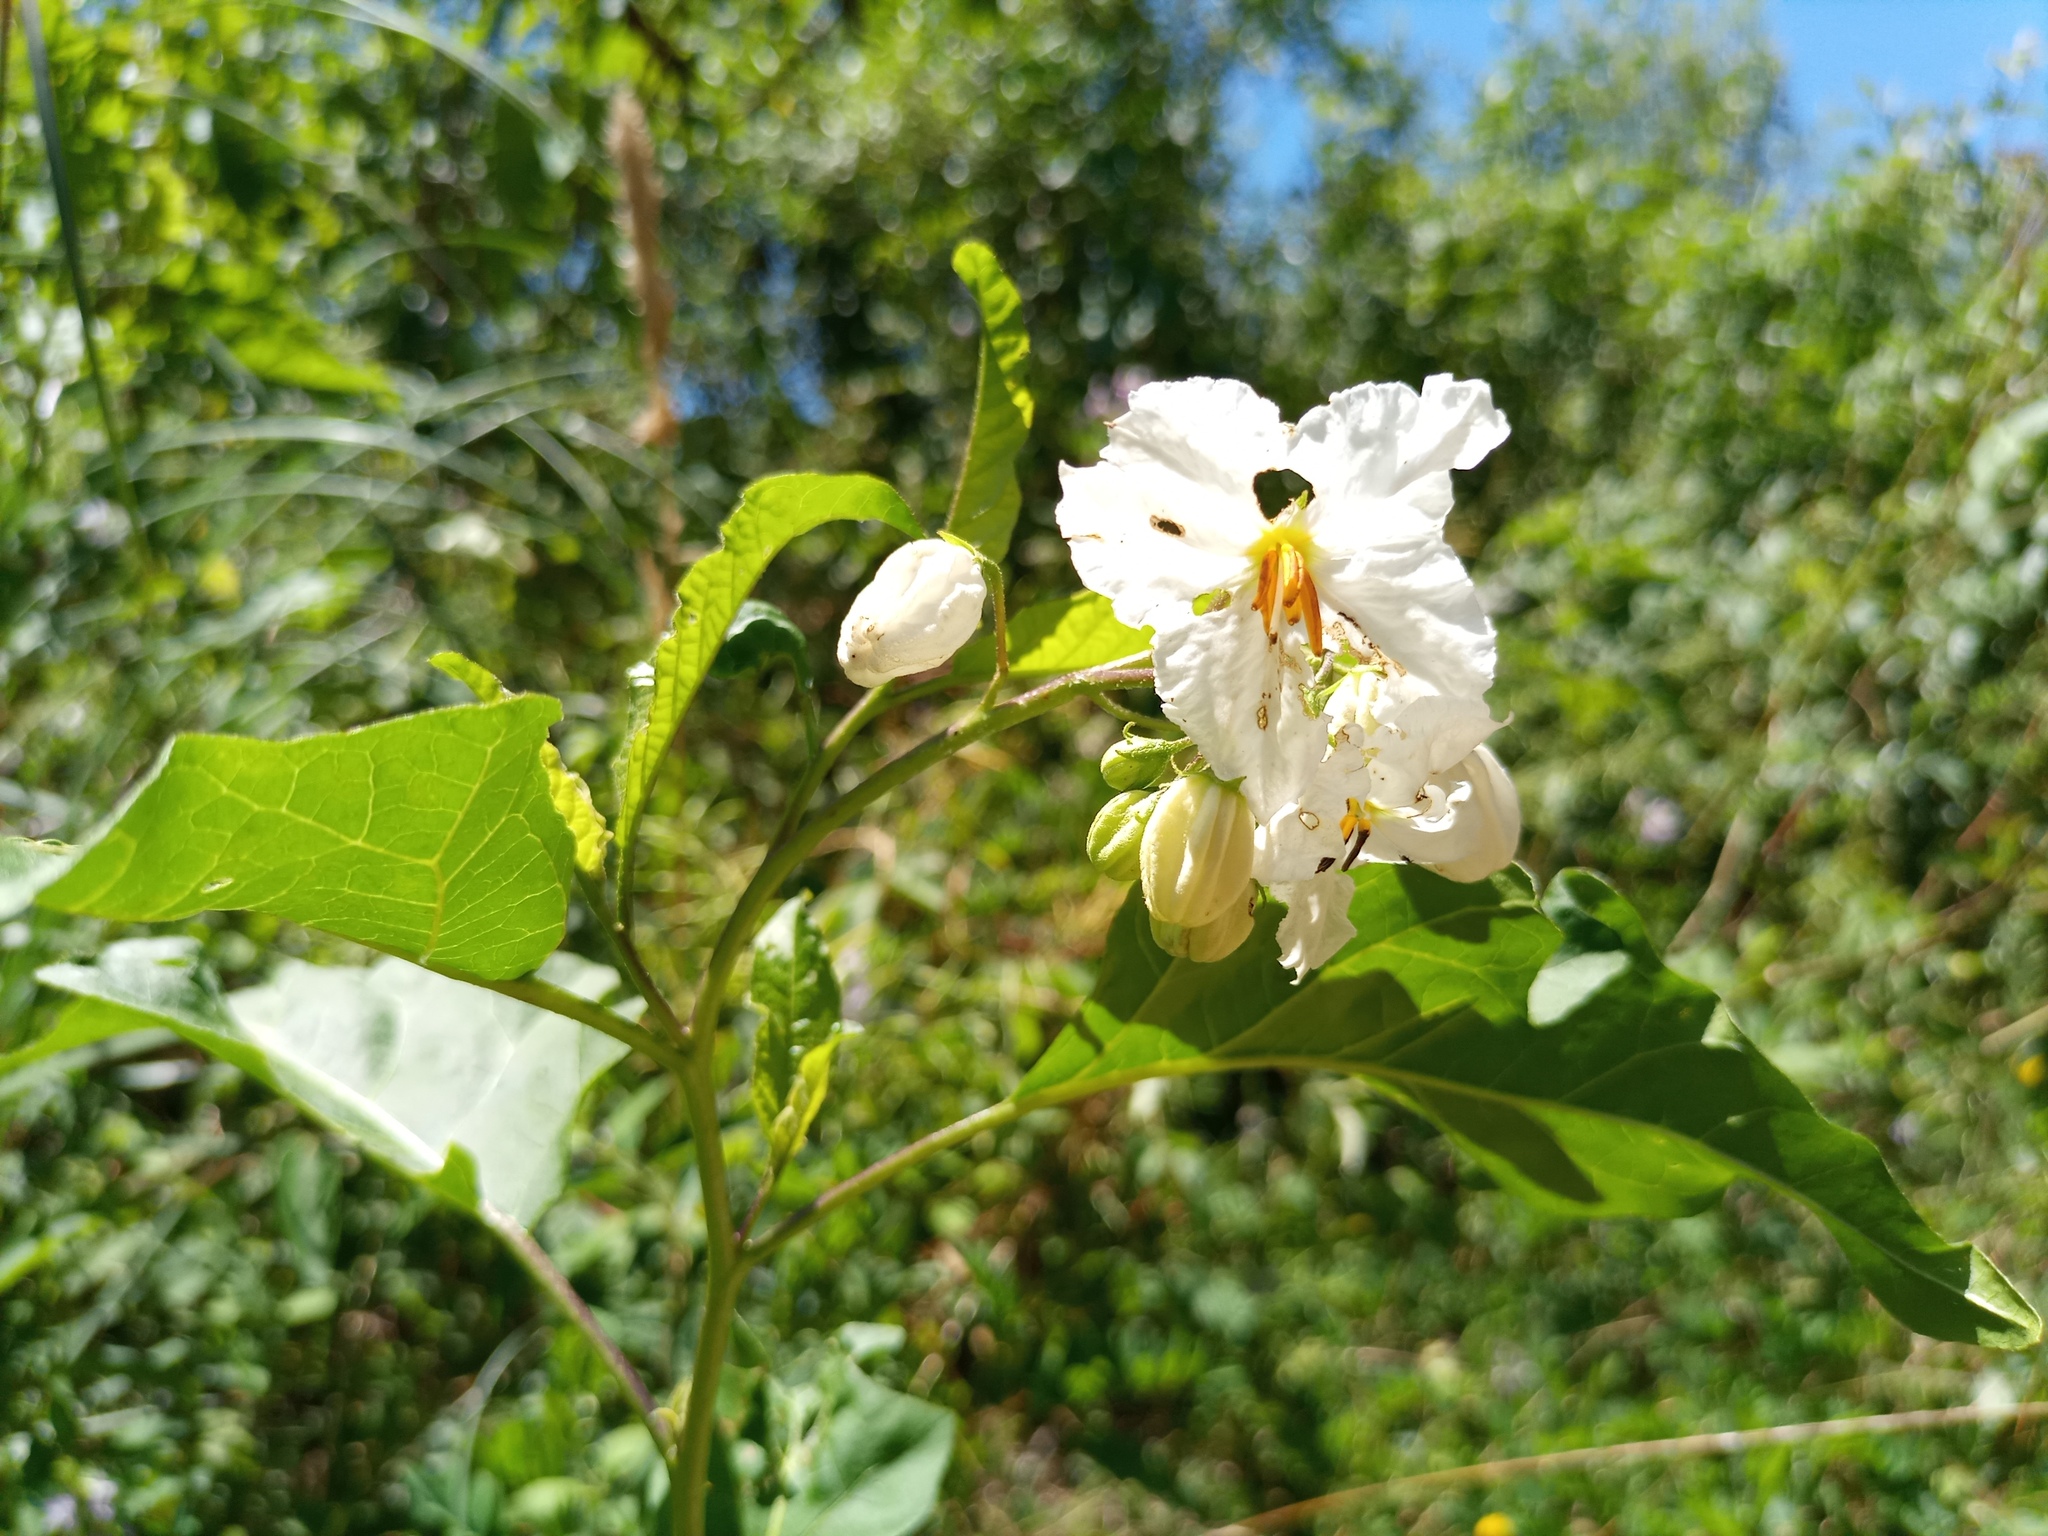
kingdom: Plantae
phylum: Tracheophyta
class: Magnoliopsida
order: Solanales
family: Solanaceae
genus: Solanum
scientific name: Solanum bonariense
